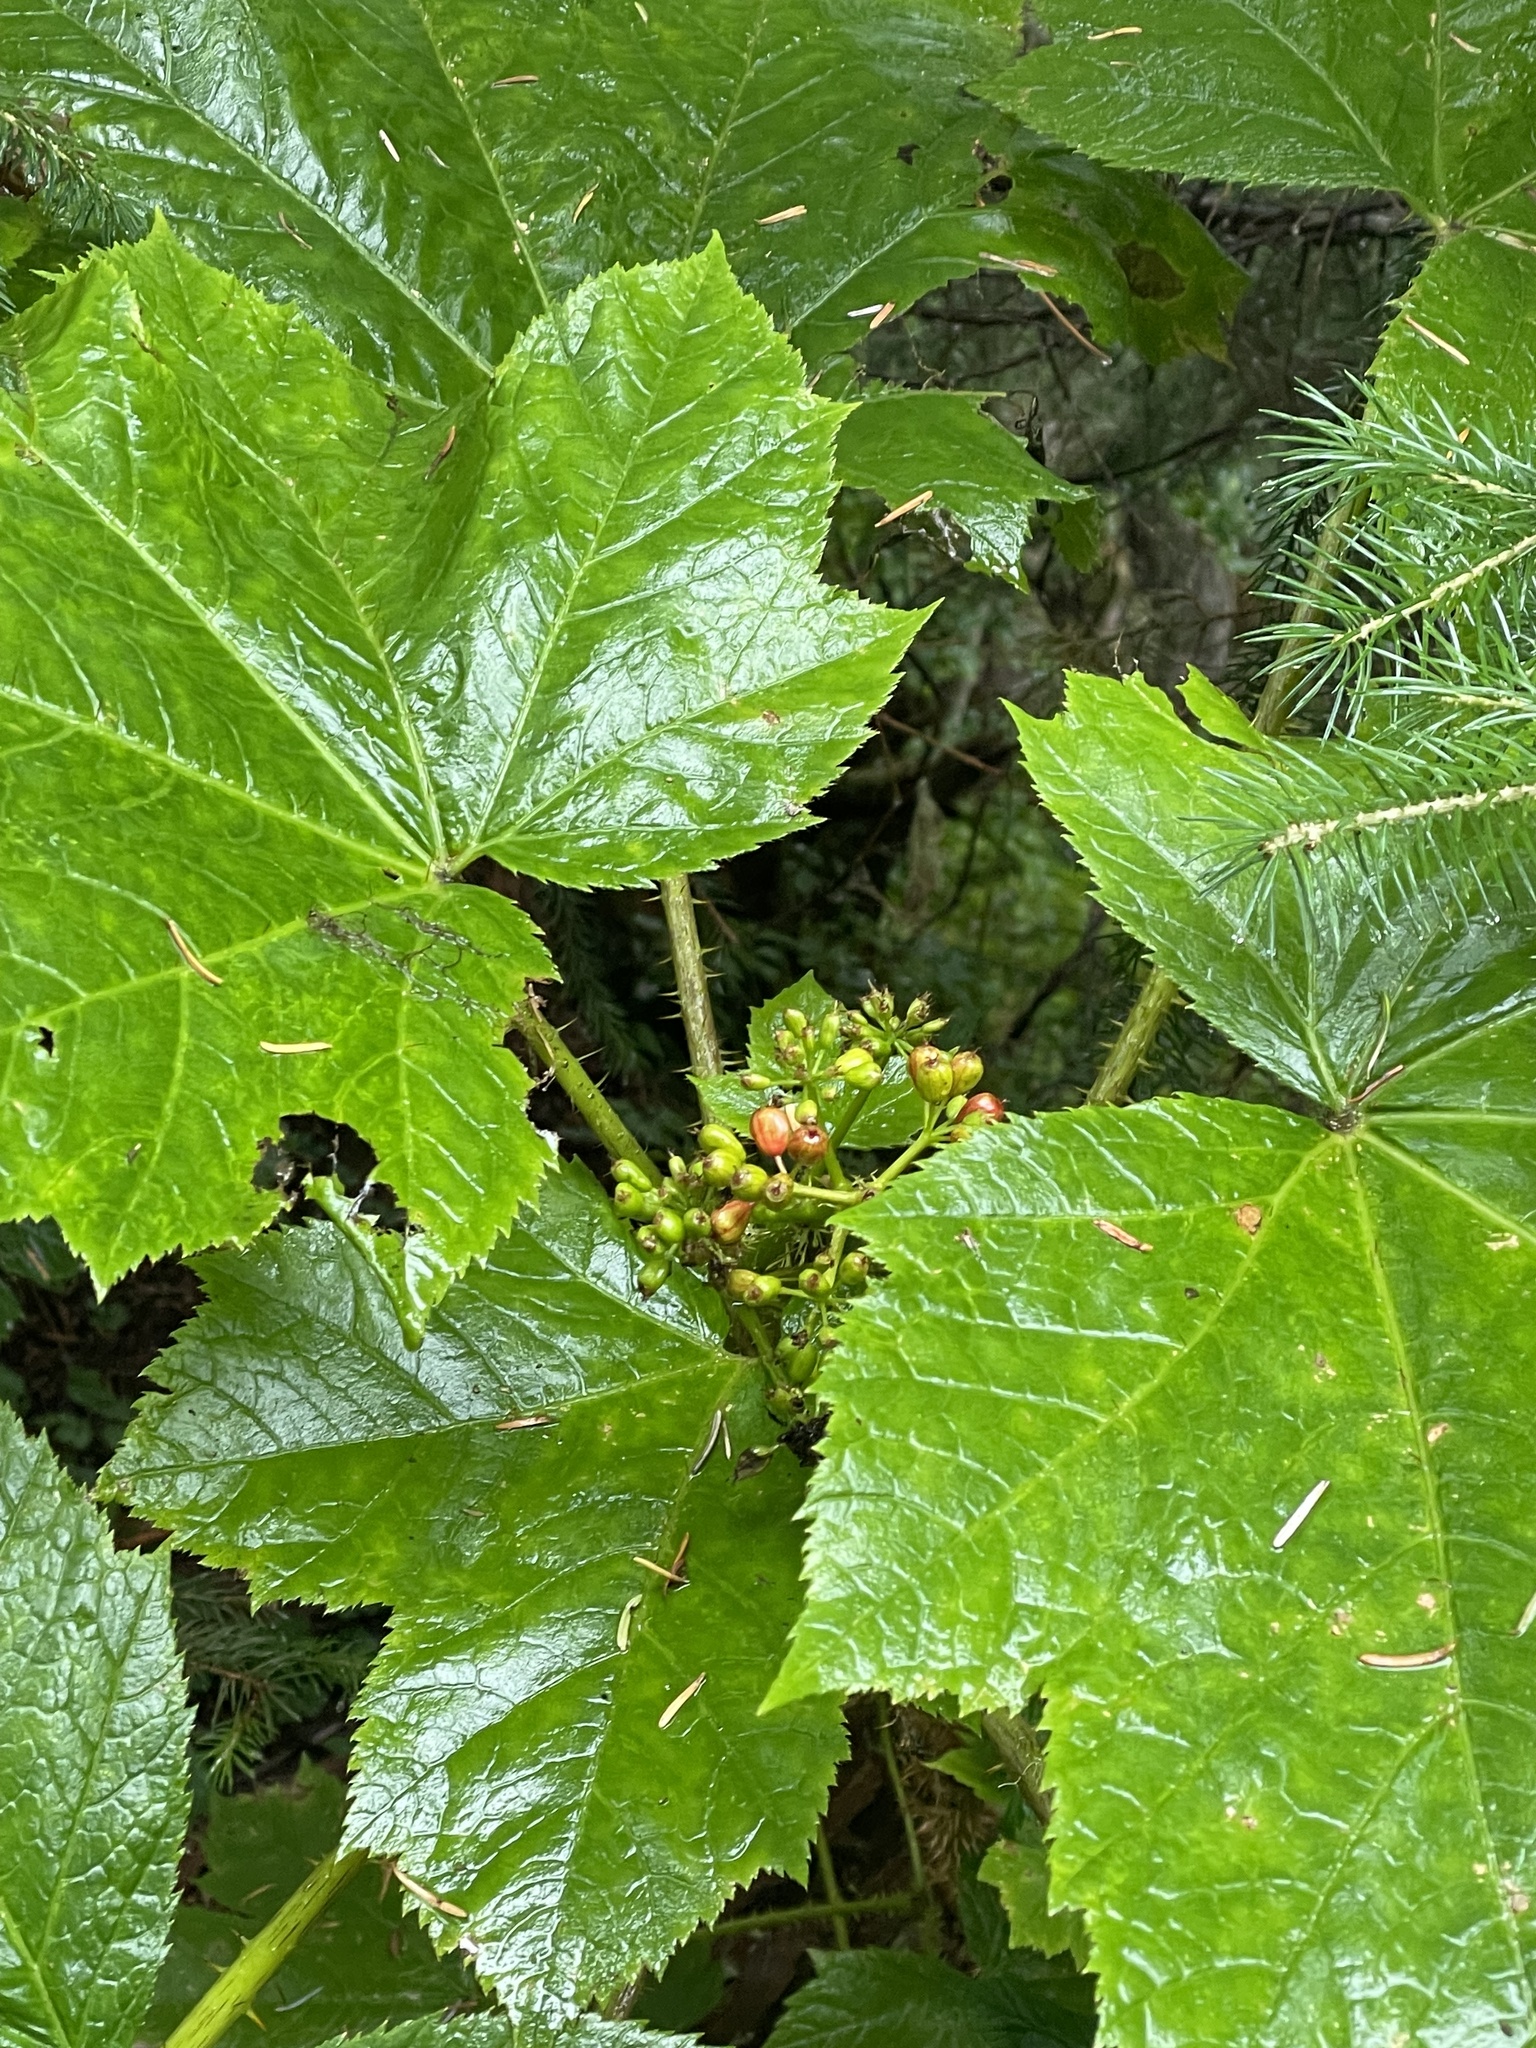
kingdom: Plantae
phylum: Tracheophyta
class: Magnoliopsida
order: Apiales
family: Araliaceae
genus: Oplopanax
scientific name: Oplopanax horridus
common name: Devil's walking-stick
